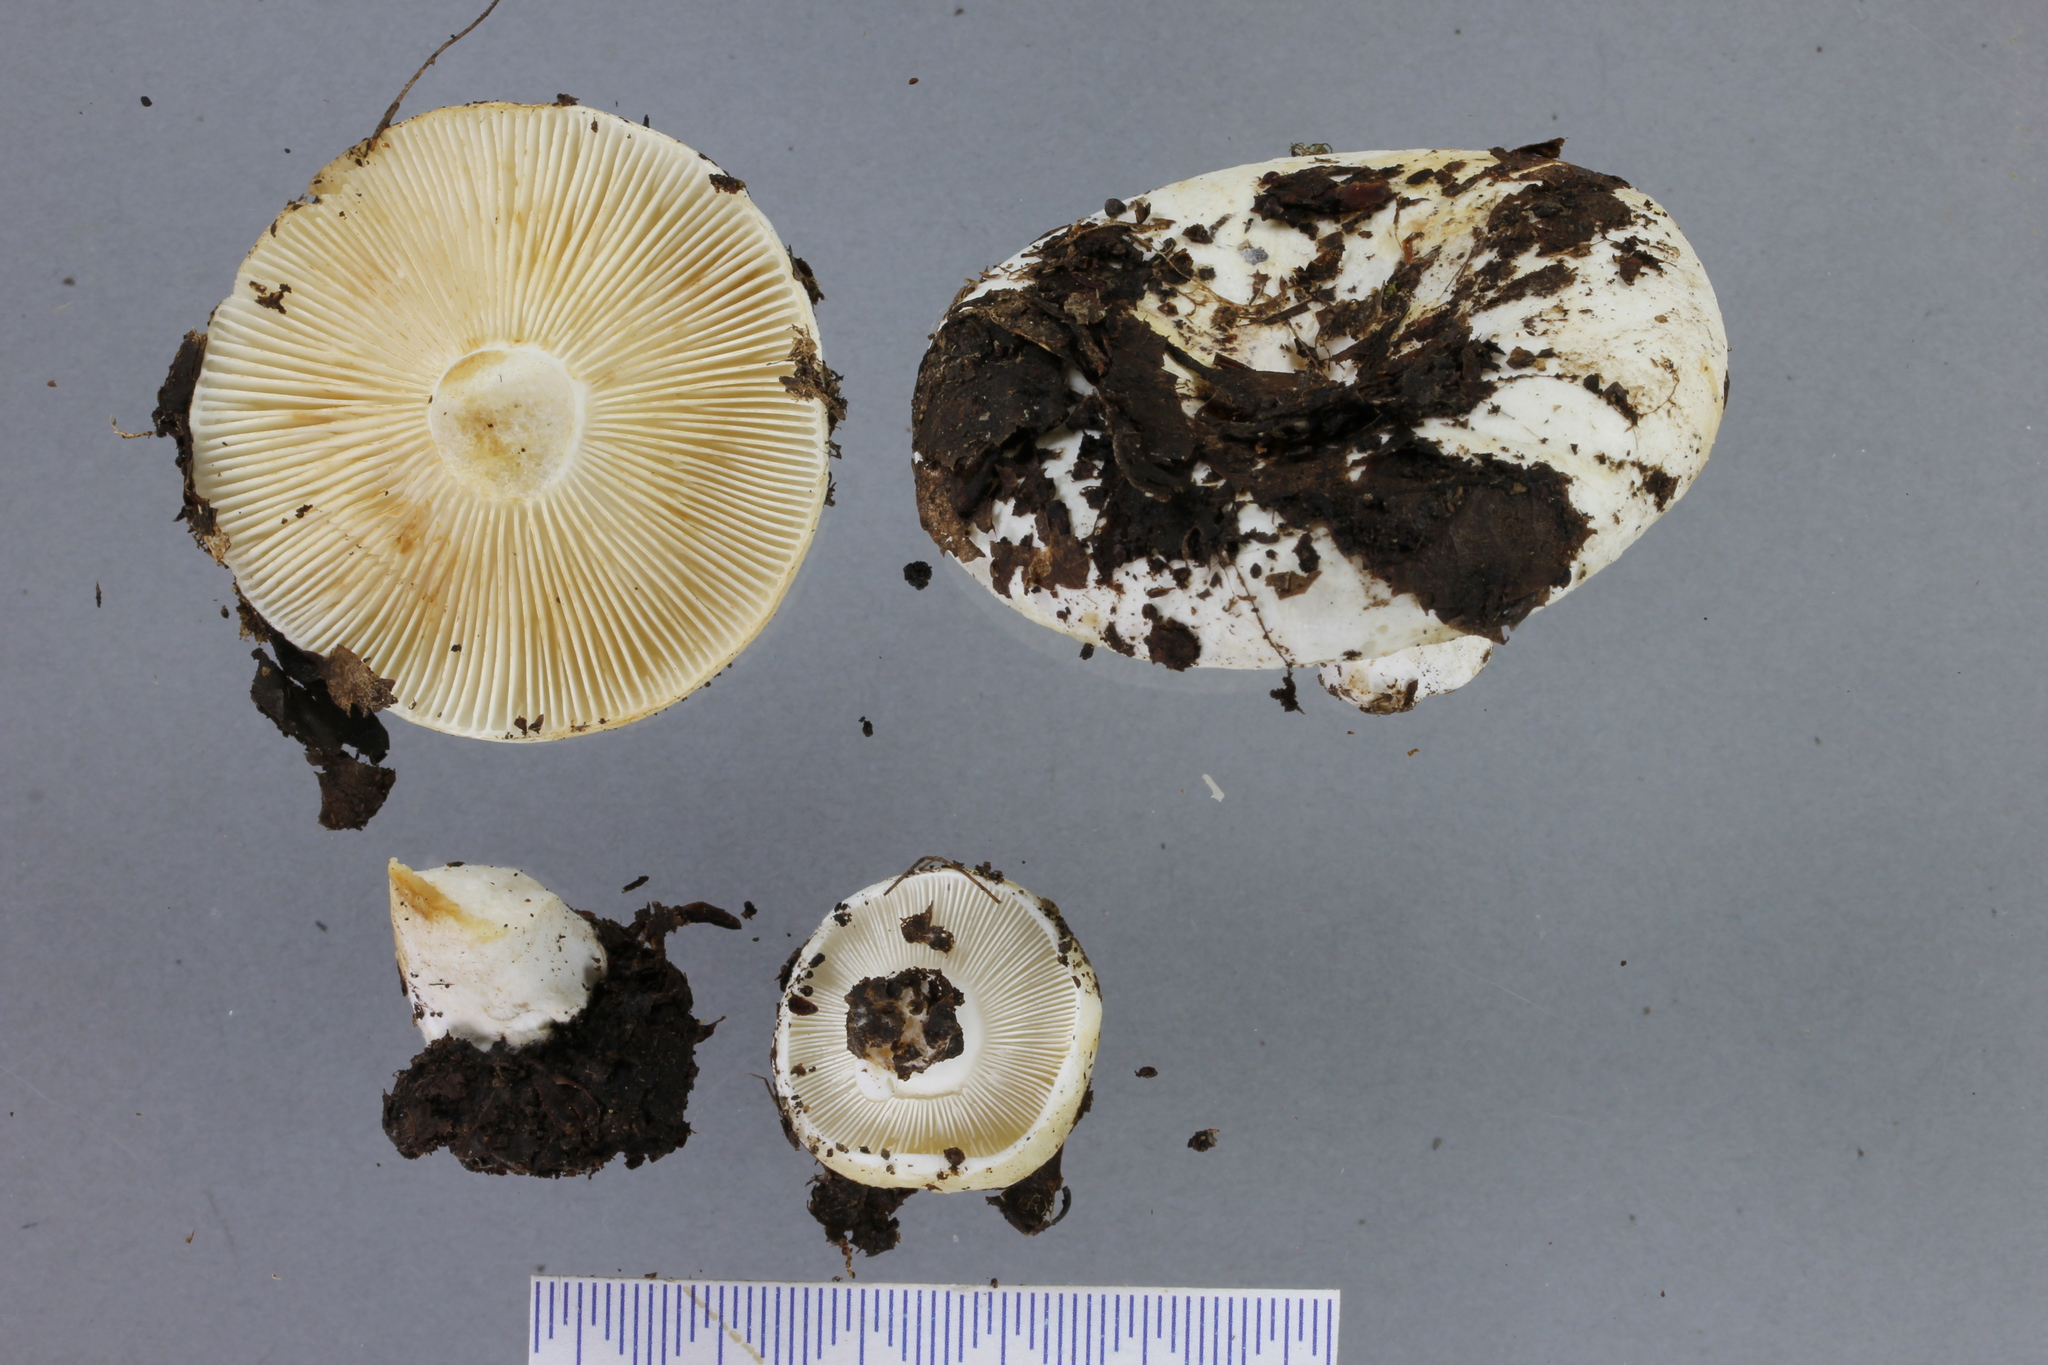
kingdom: Fungi
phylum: Basidiomycota
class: Agaricomycetes
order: Russulales
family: Russulaceae
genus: Russula
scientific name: Russula cremeo-ochracea
